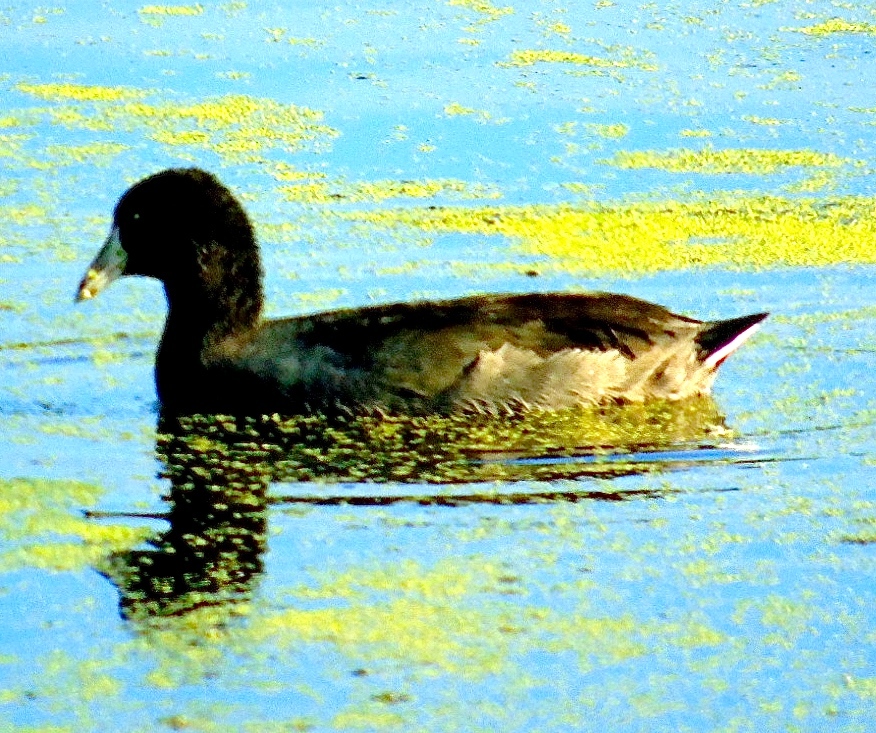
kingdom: Animalia
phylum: Chordata
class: Aves
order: Gruiformes
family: Rallidae
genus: Fulica
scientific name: Fulica americana
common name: American coot
